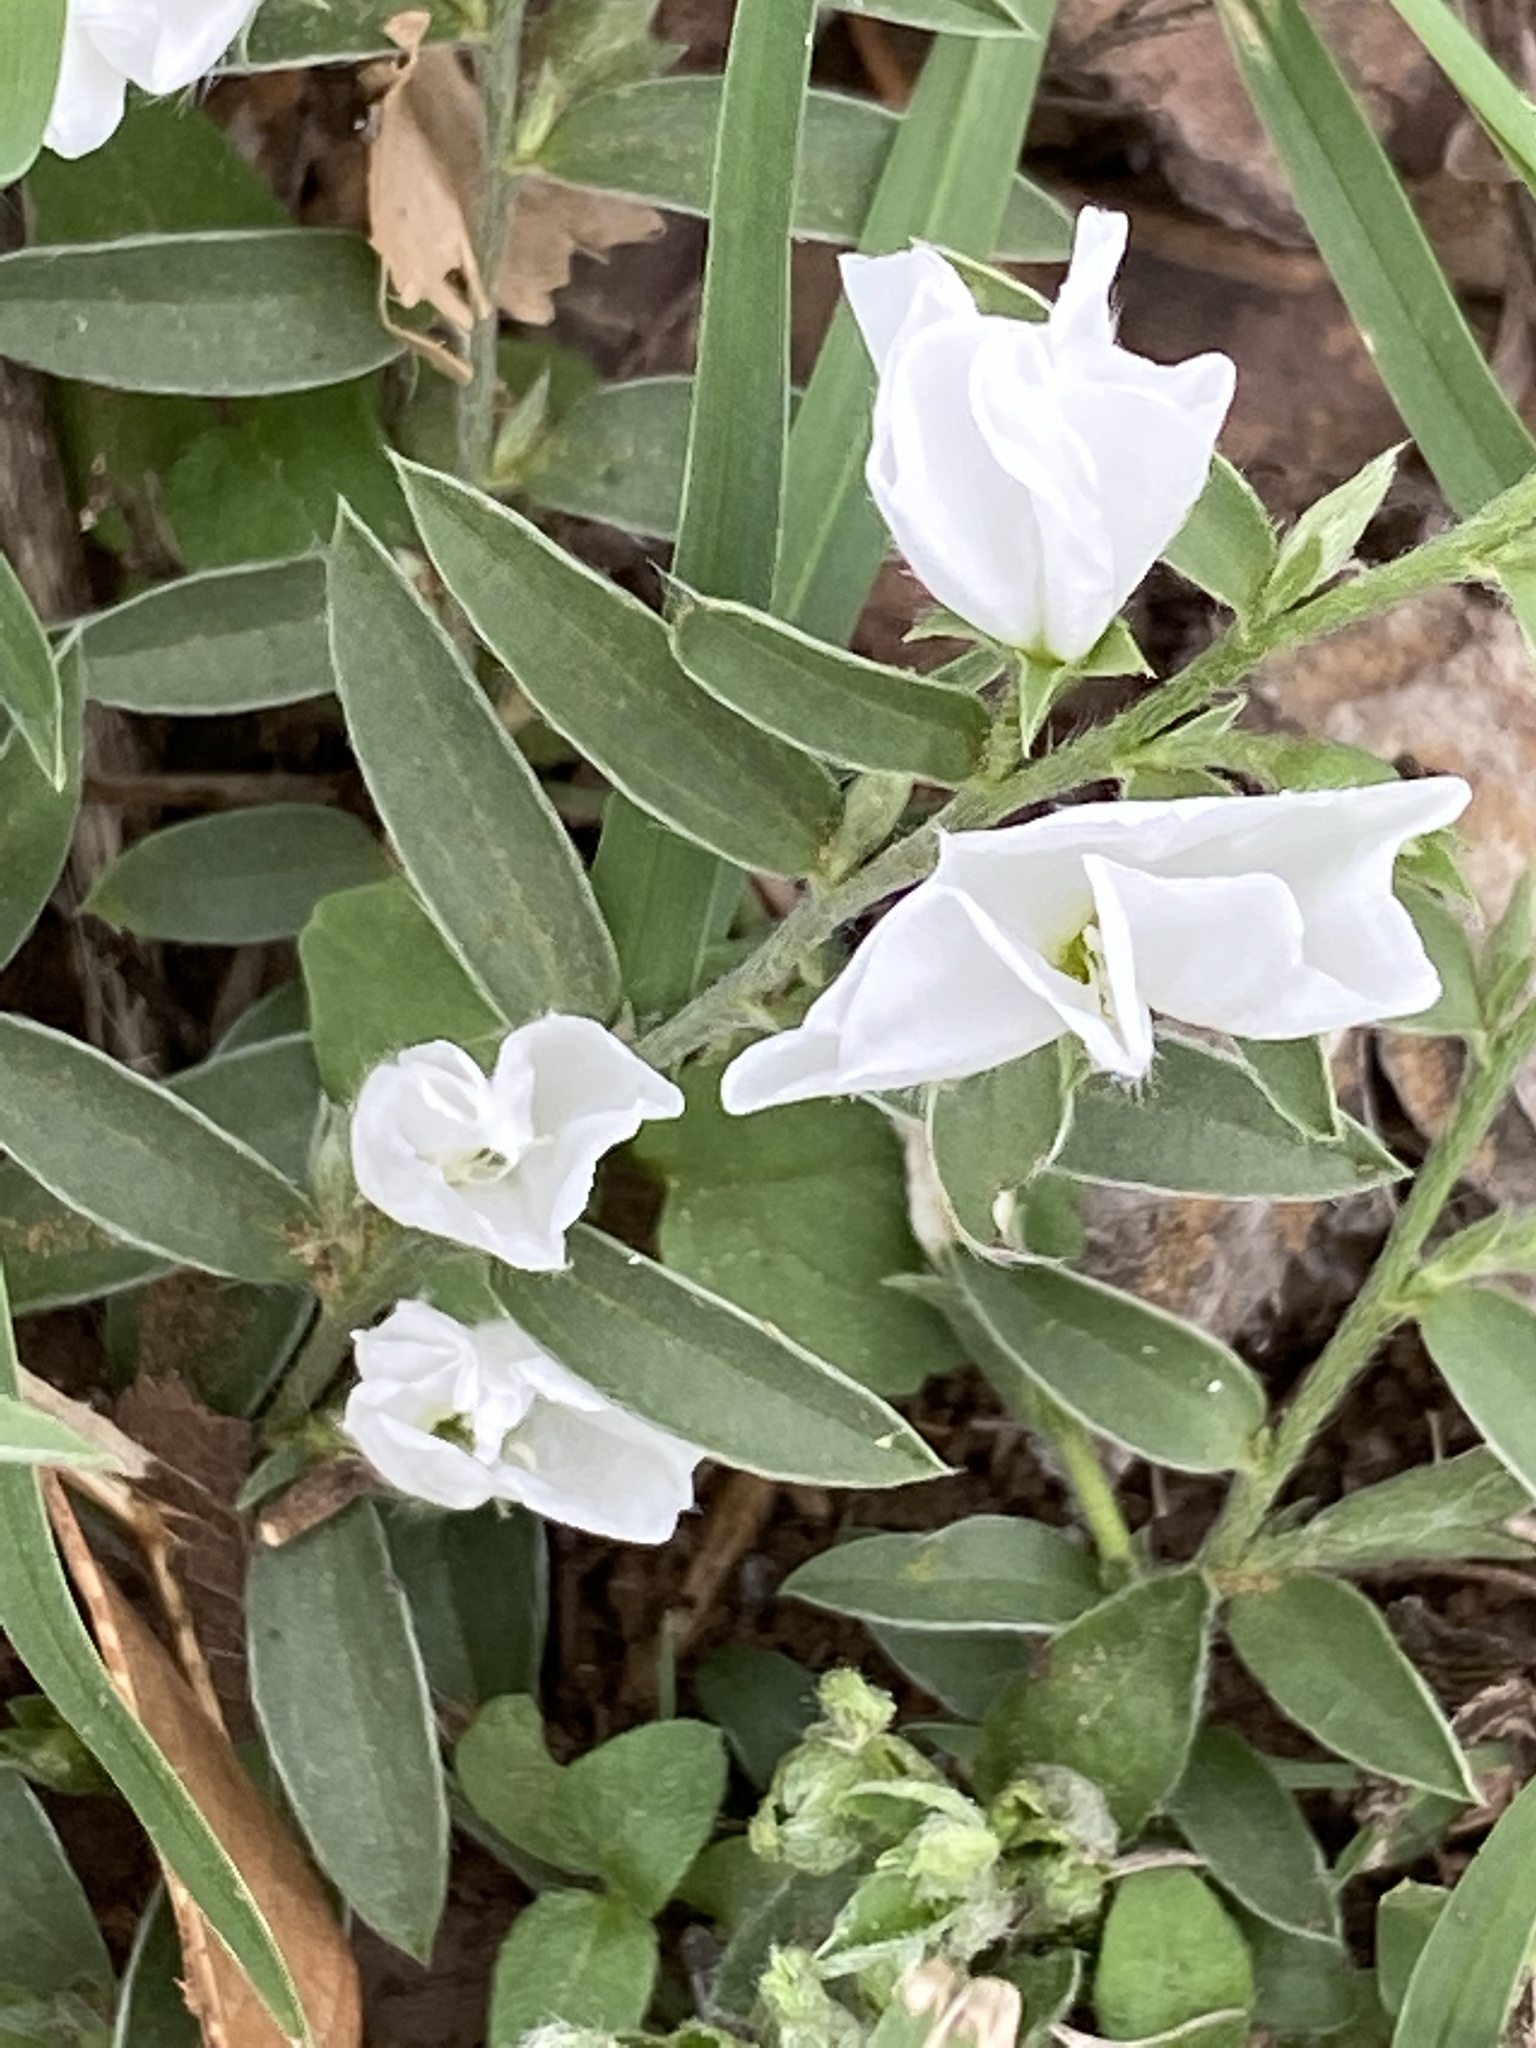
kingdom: Plantae
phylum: Tracheophyta
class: Magnoliopsida
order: Solanales
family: Convolvulaceae
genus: Evolvulus
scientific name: Evolvulus sericeus
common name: Blue dots
